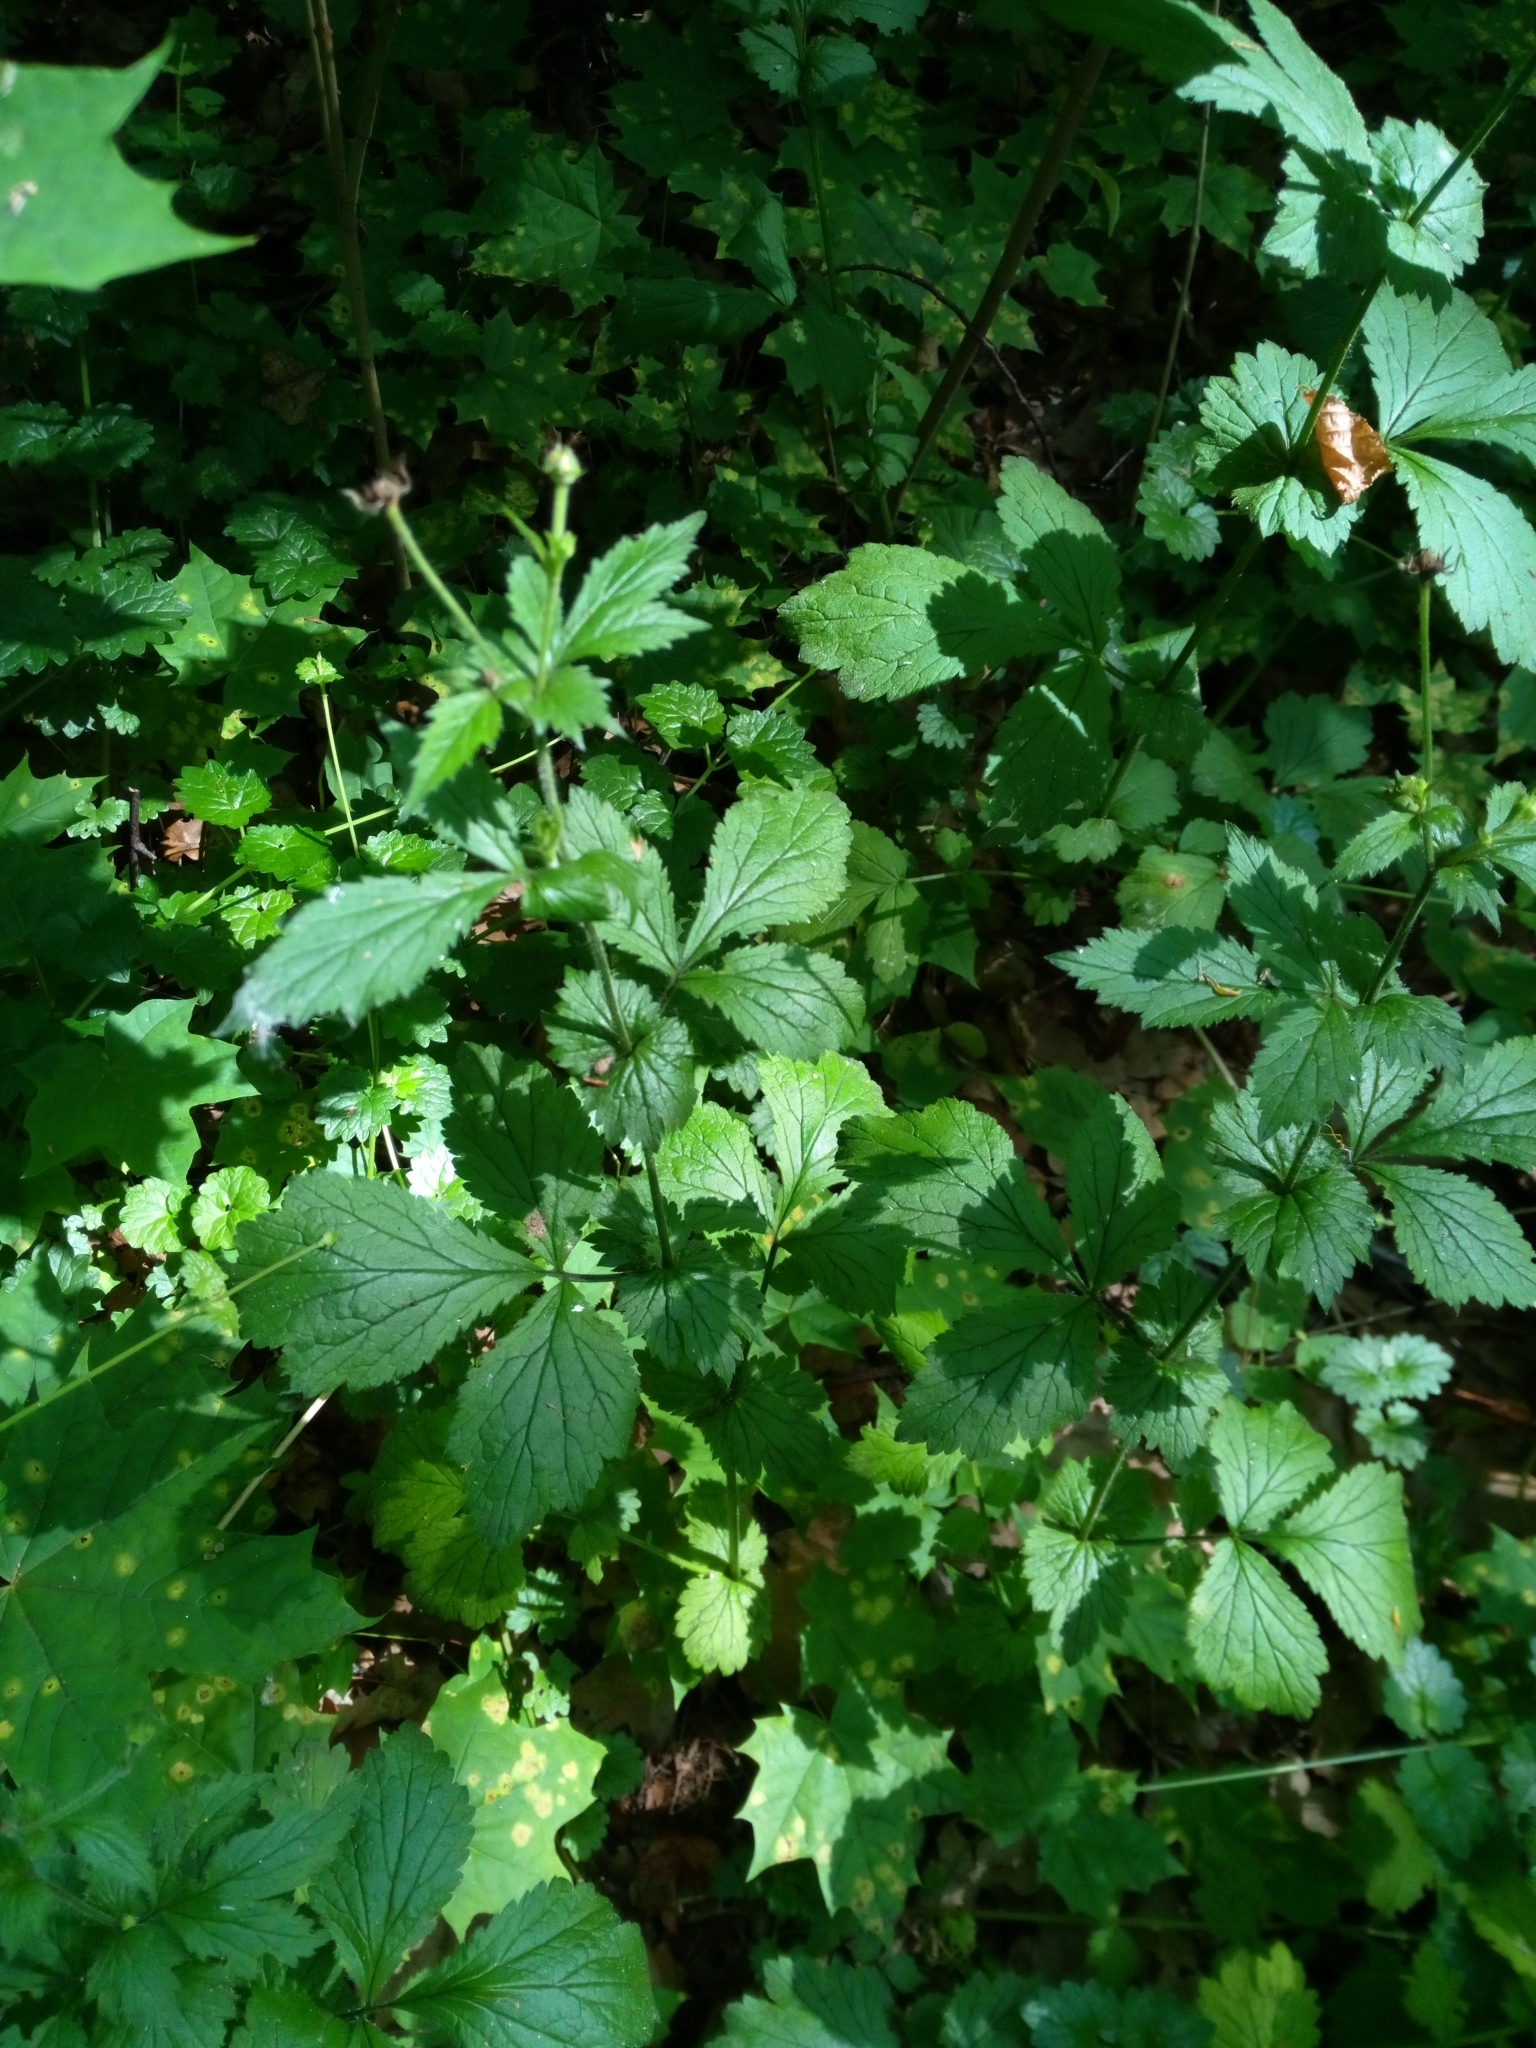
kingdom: Plantae
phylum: Tracheophyta
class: Magnoliopsida
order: Rosales
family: Rosaceae
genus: Geum
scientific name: Geum urbanum
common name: Wood avens
